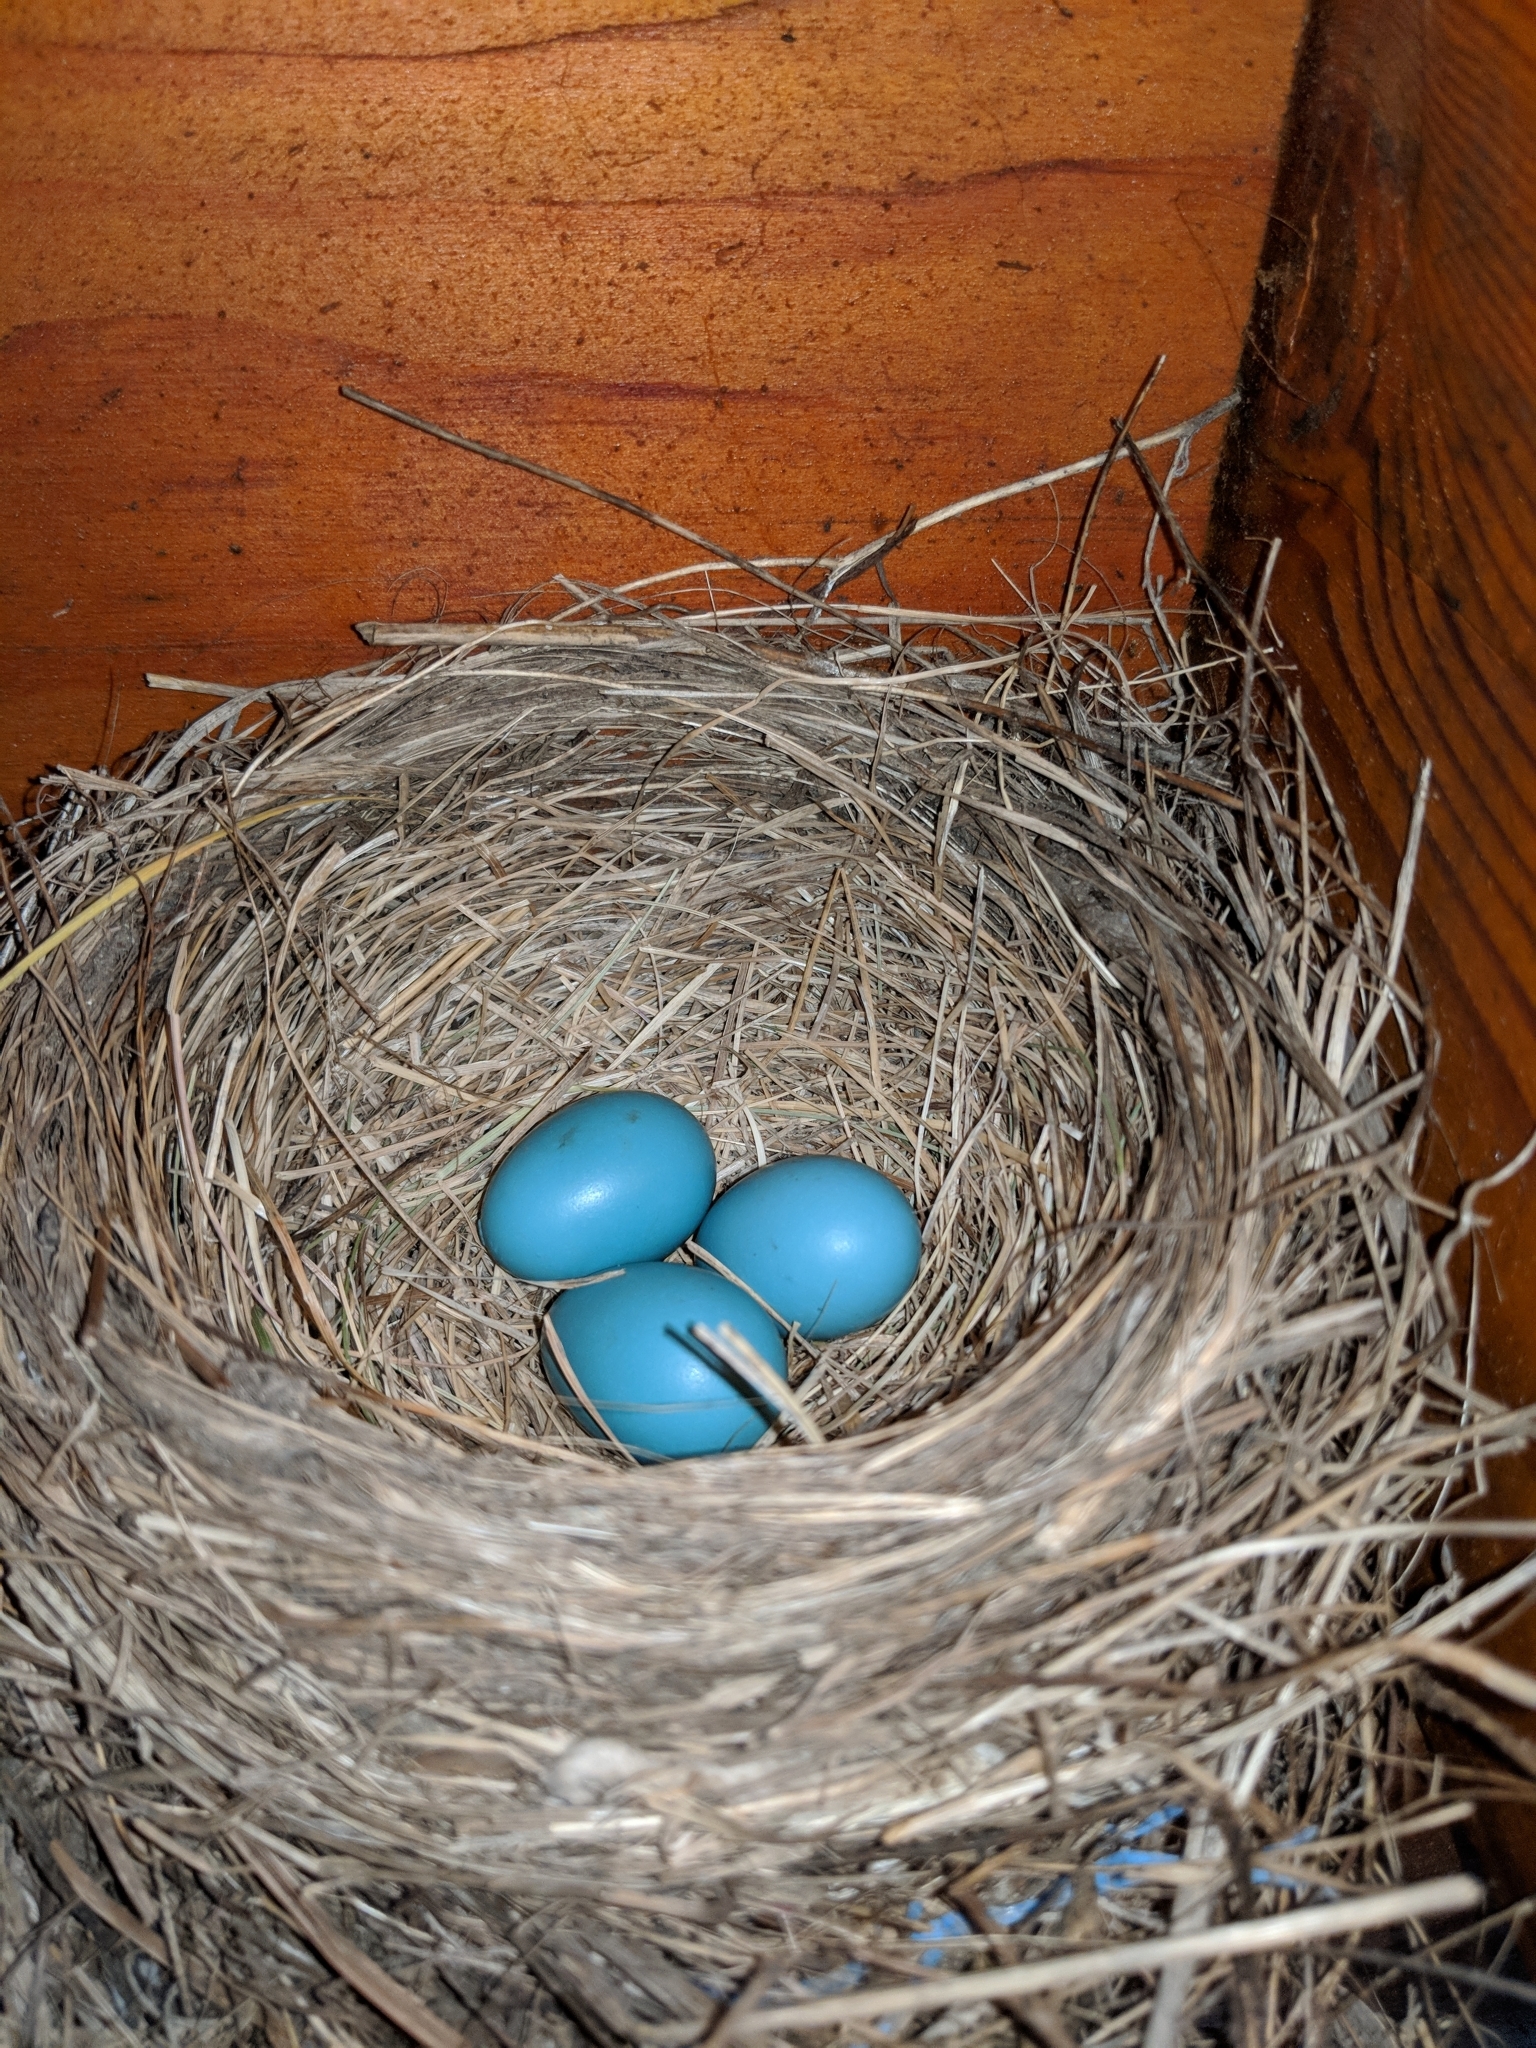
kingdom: Animalia
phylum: Chordata
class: Aves
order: Passeriformes
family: Turdidae
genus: Turdus
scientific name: Turdus migratorius
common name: American robin
